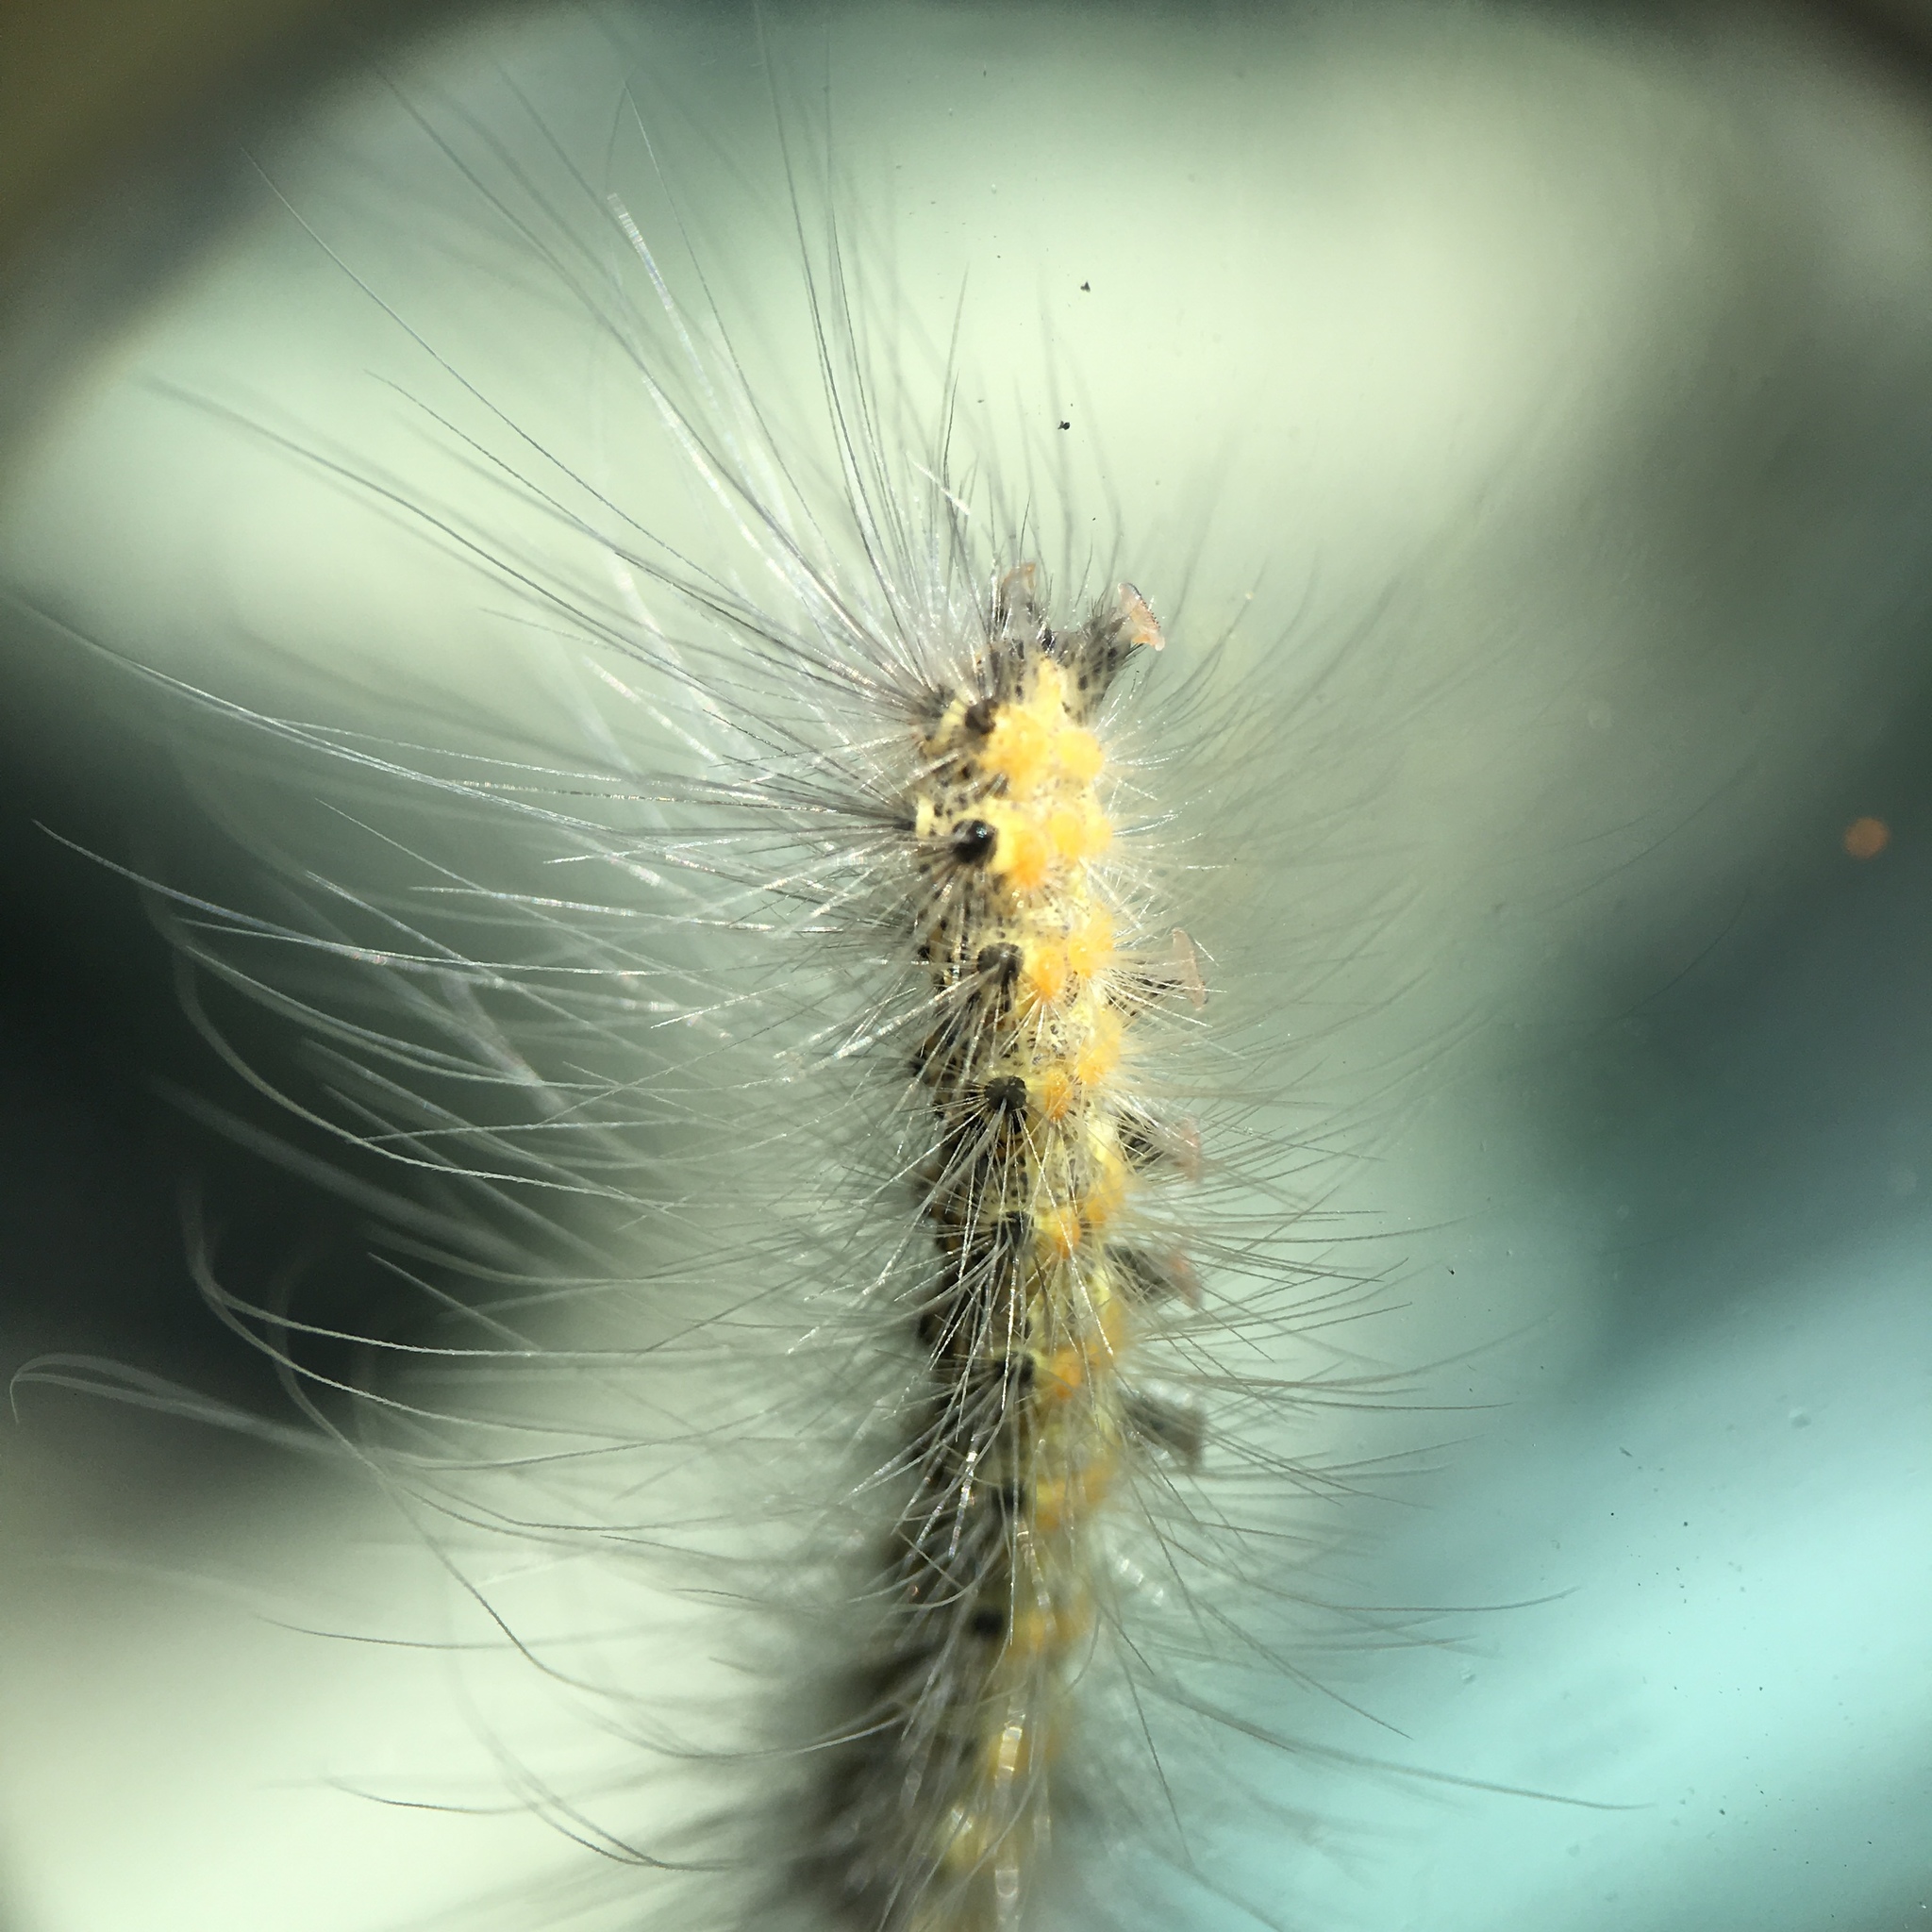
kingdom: Animalia
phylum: Arthropoda
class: Insecta
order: Lepidoptera
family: Erebidae
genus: Hyphantria
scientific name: Hyphantria cunea
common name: American white moth
